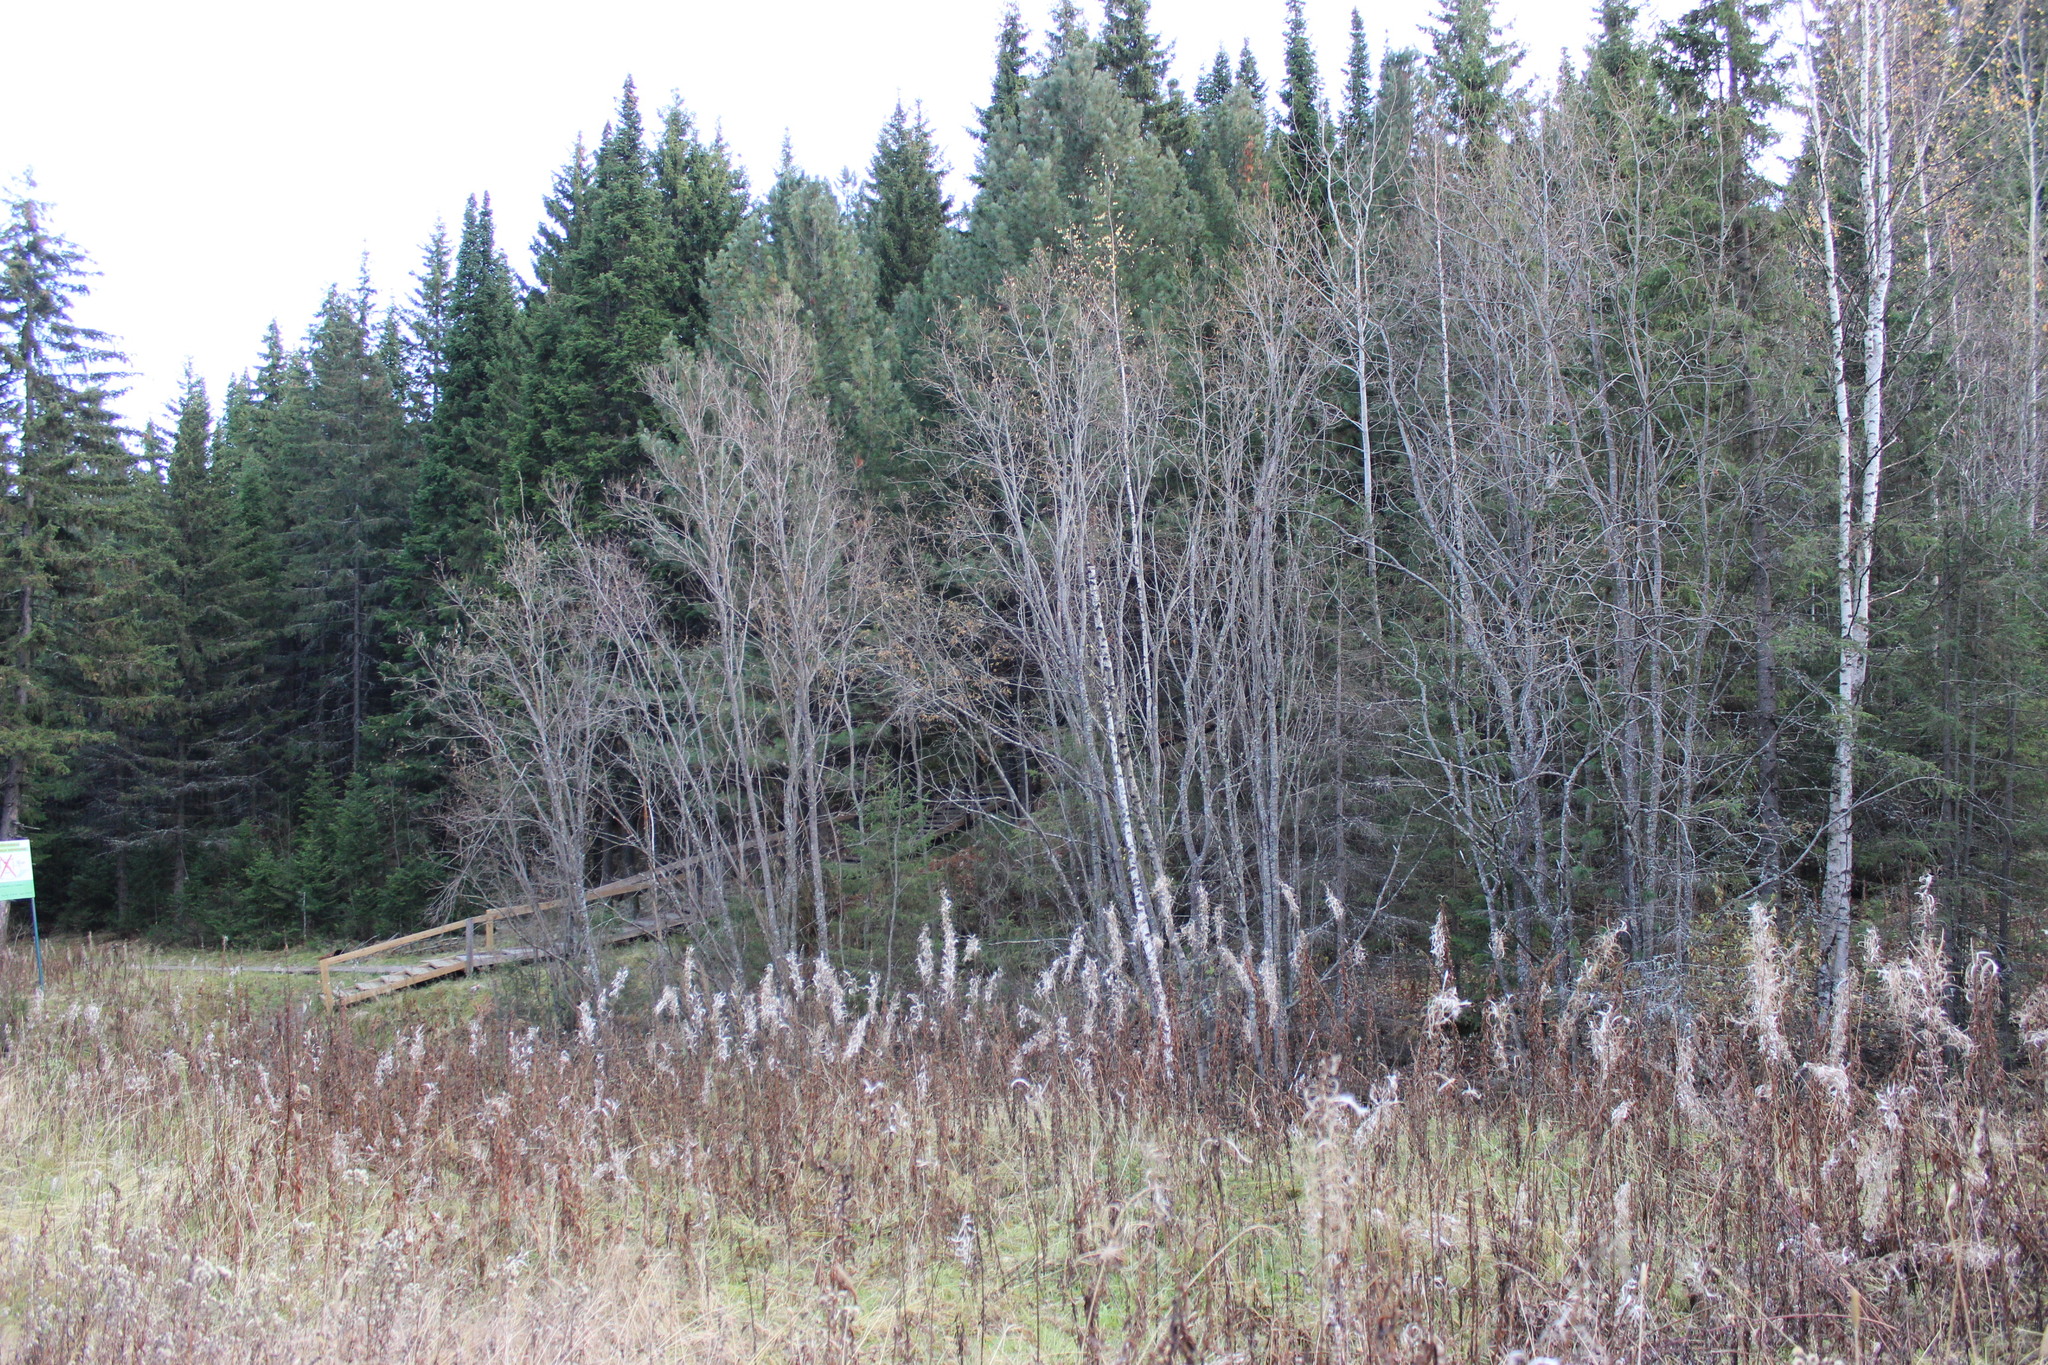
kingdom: Plantae
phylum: Tracheophyta
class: Magnoliopsida
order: Myrtales
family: Onagraceae
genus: Chamaenerion
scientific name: Chamaenerion angustifolium
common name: Fireweed
